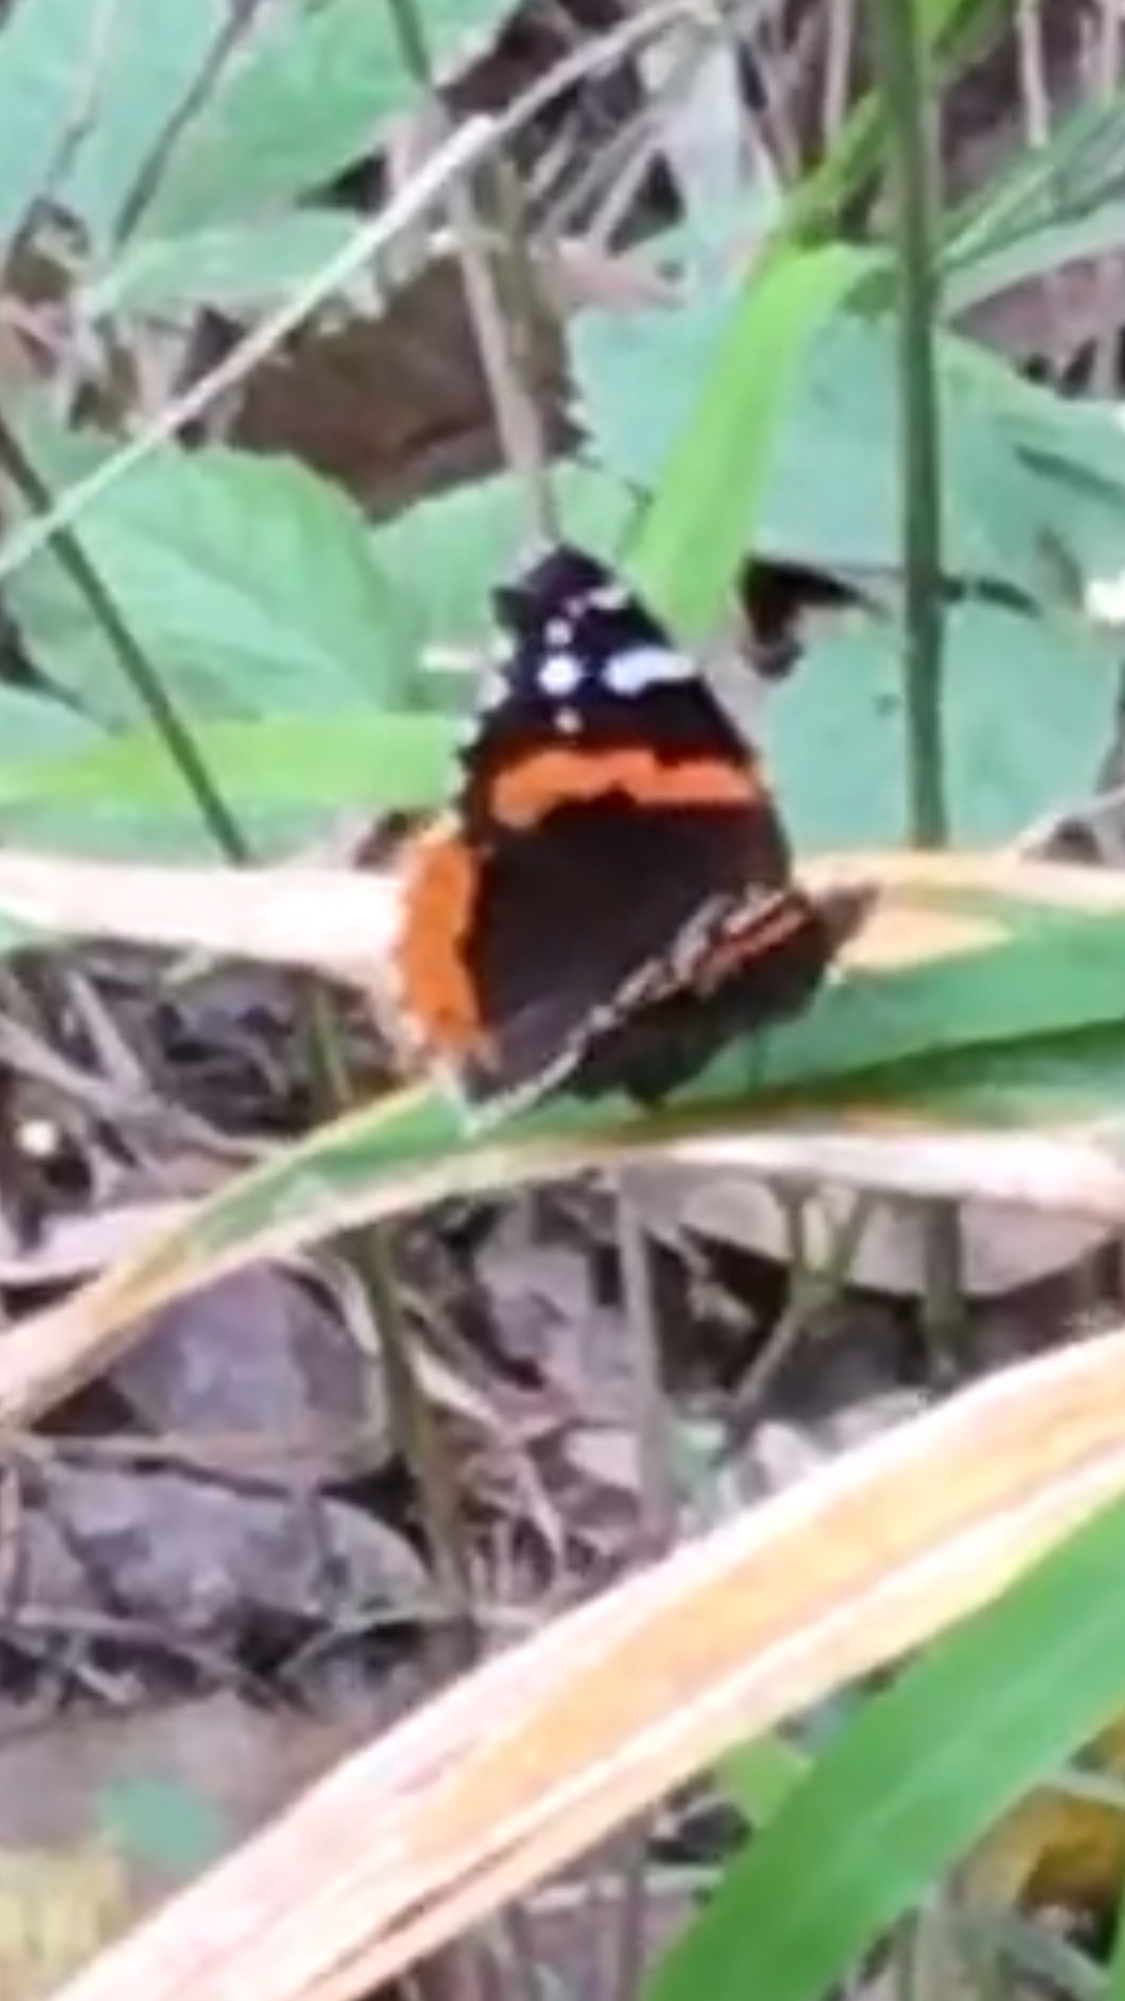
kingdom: Animalia
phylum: Arthropoda
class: Insecta
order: Lepidoptera
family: Nymphalidae
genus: Vanessa
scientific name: Vanessa atalanta
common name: Red admiral
